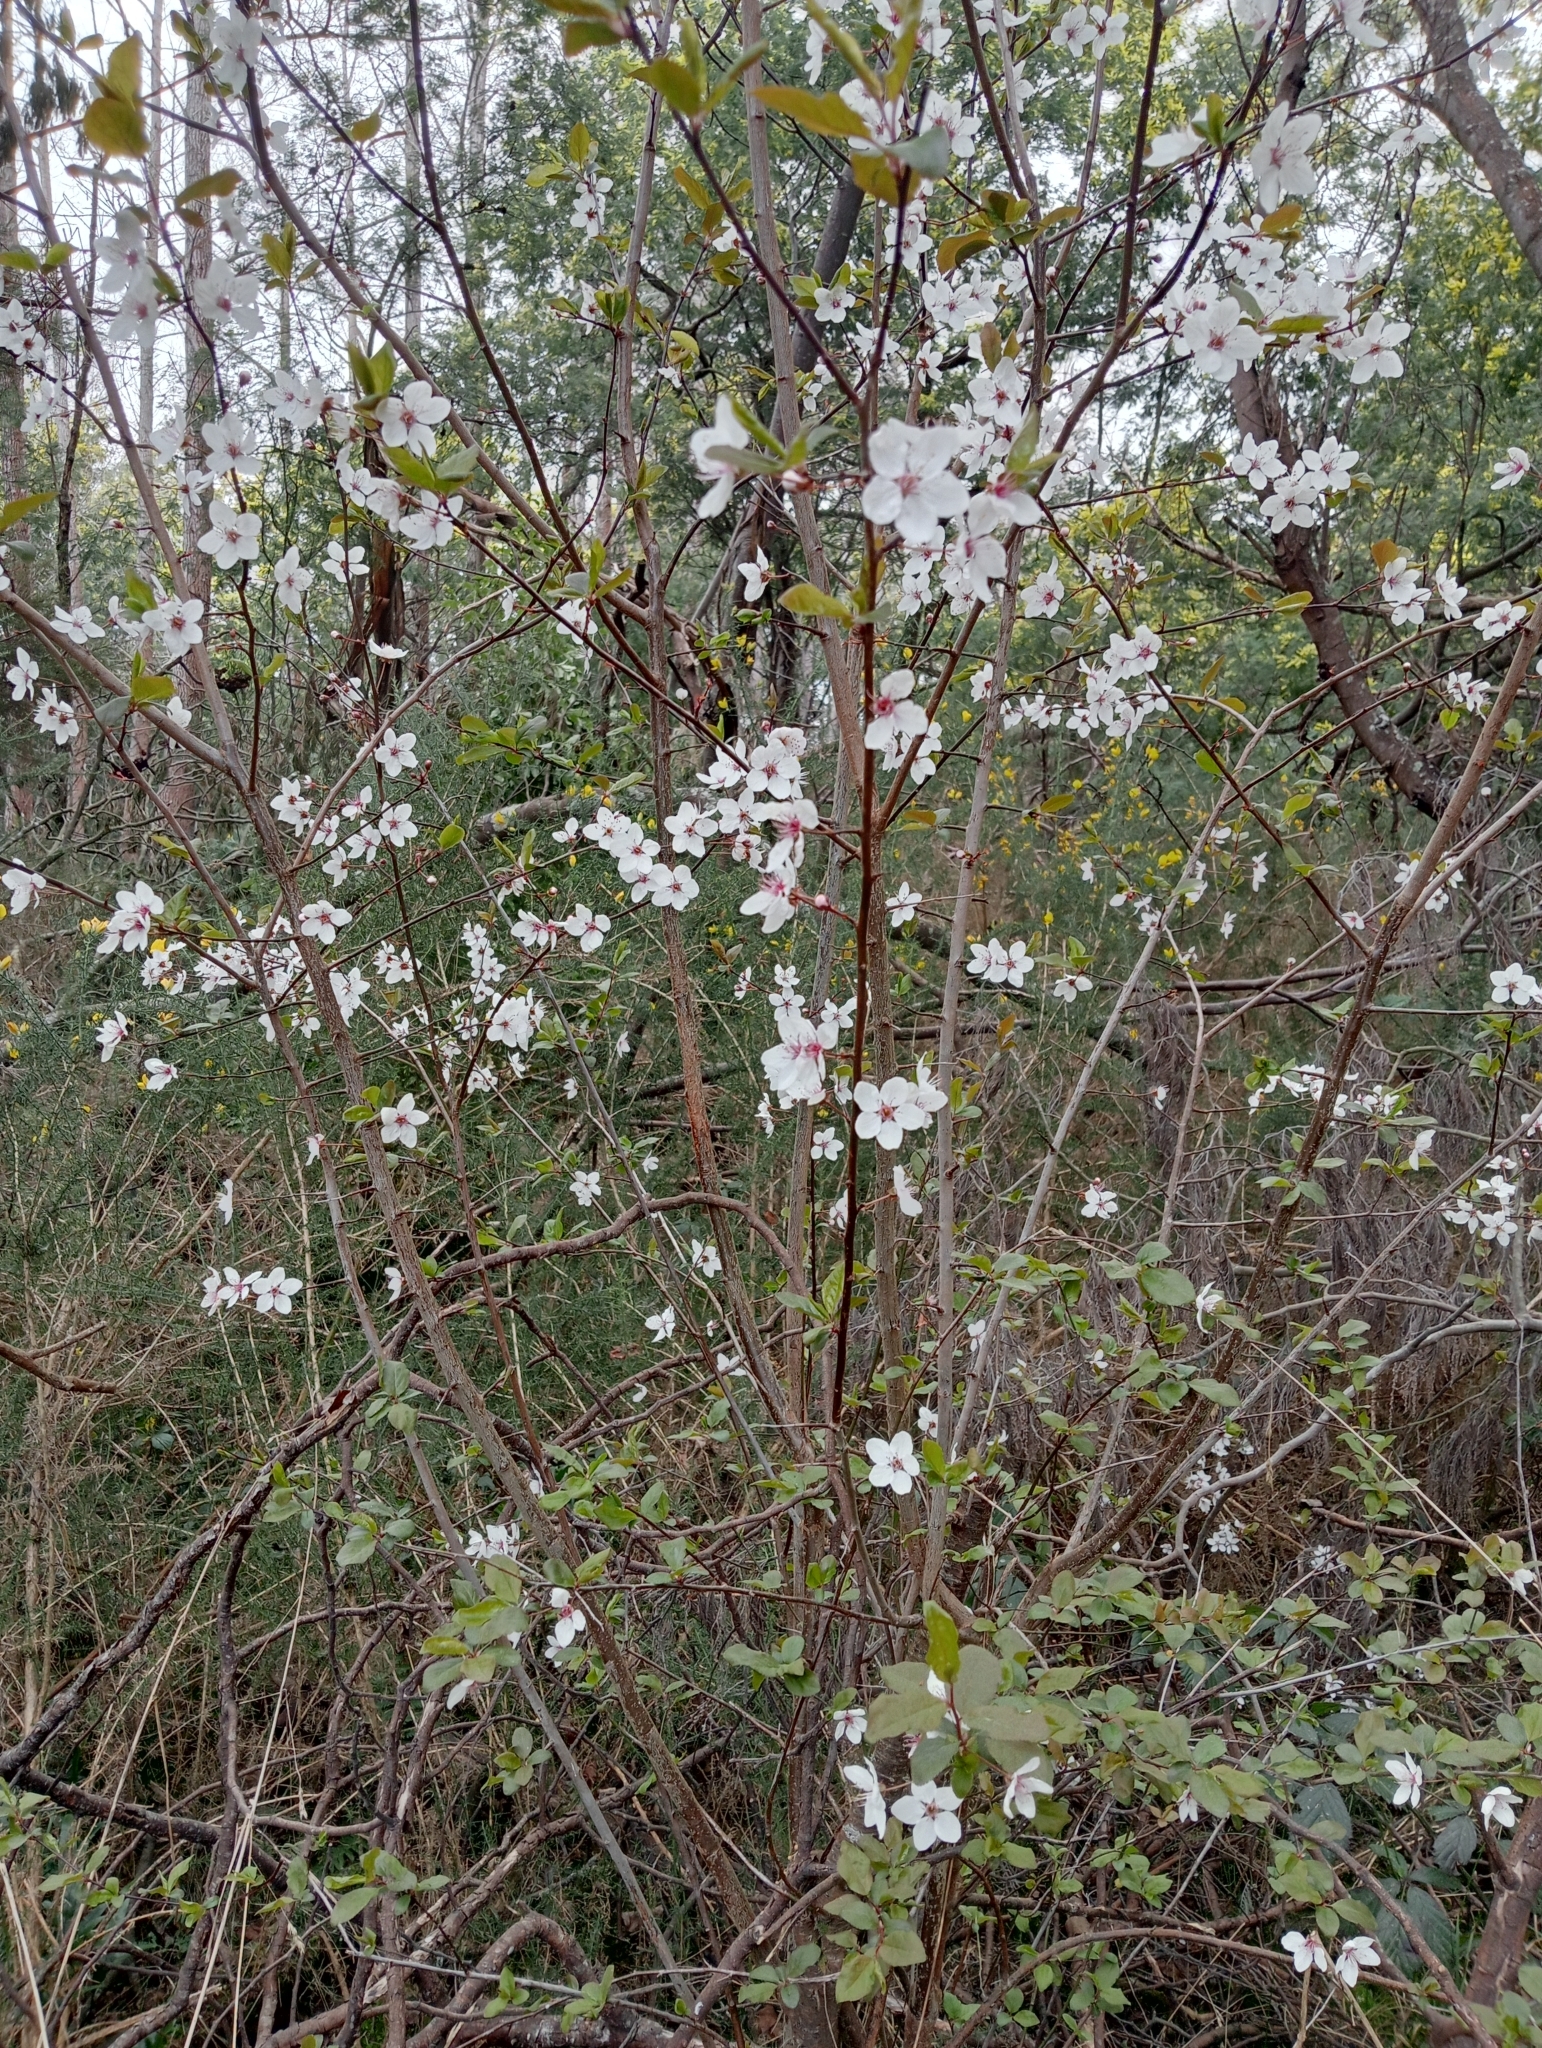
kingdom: Plantae
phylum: Tracheophyta
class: Magnoliopsida
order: Rosales
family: Rosaceae
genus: Prunus
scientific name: Prunus cerasifera
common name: Cherry plum
